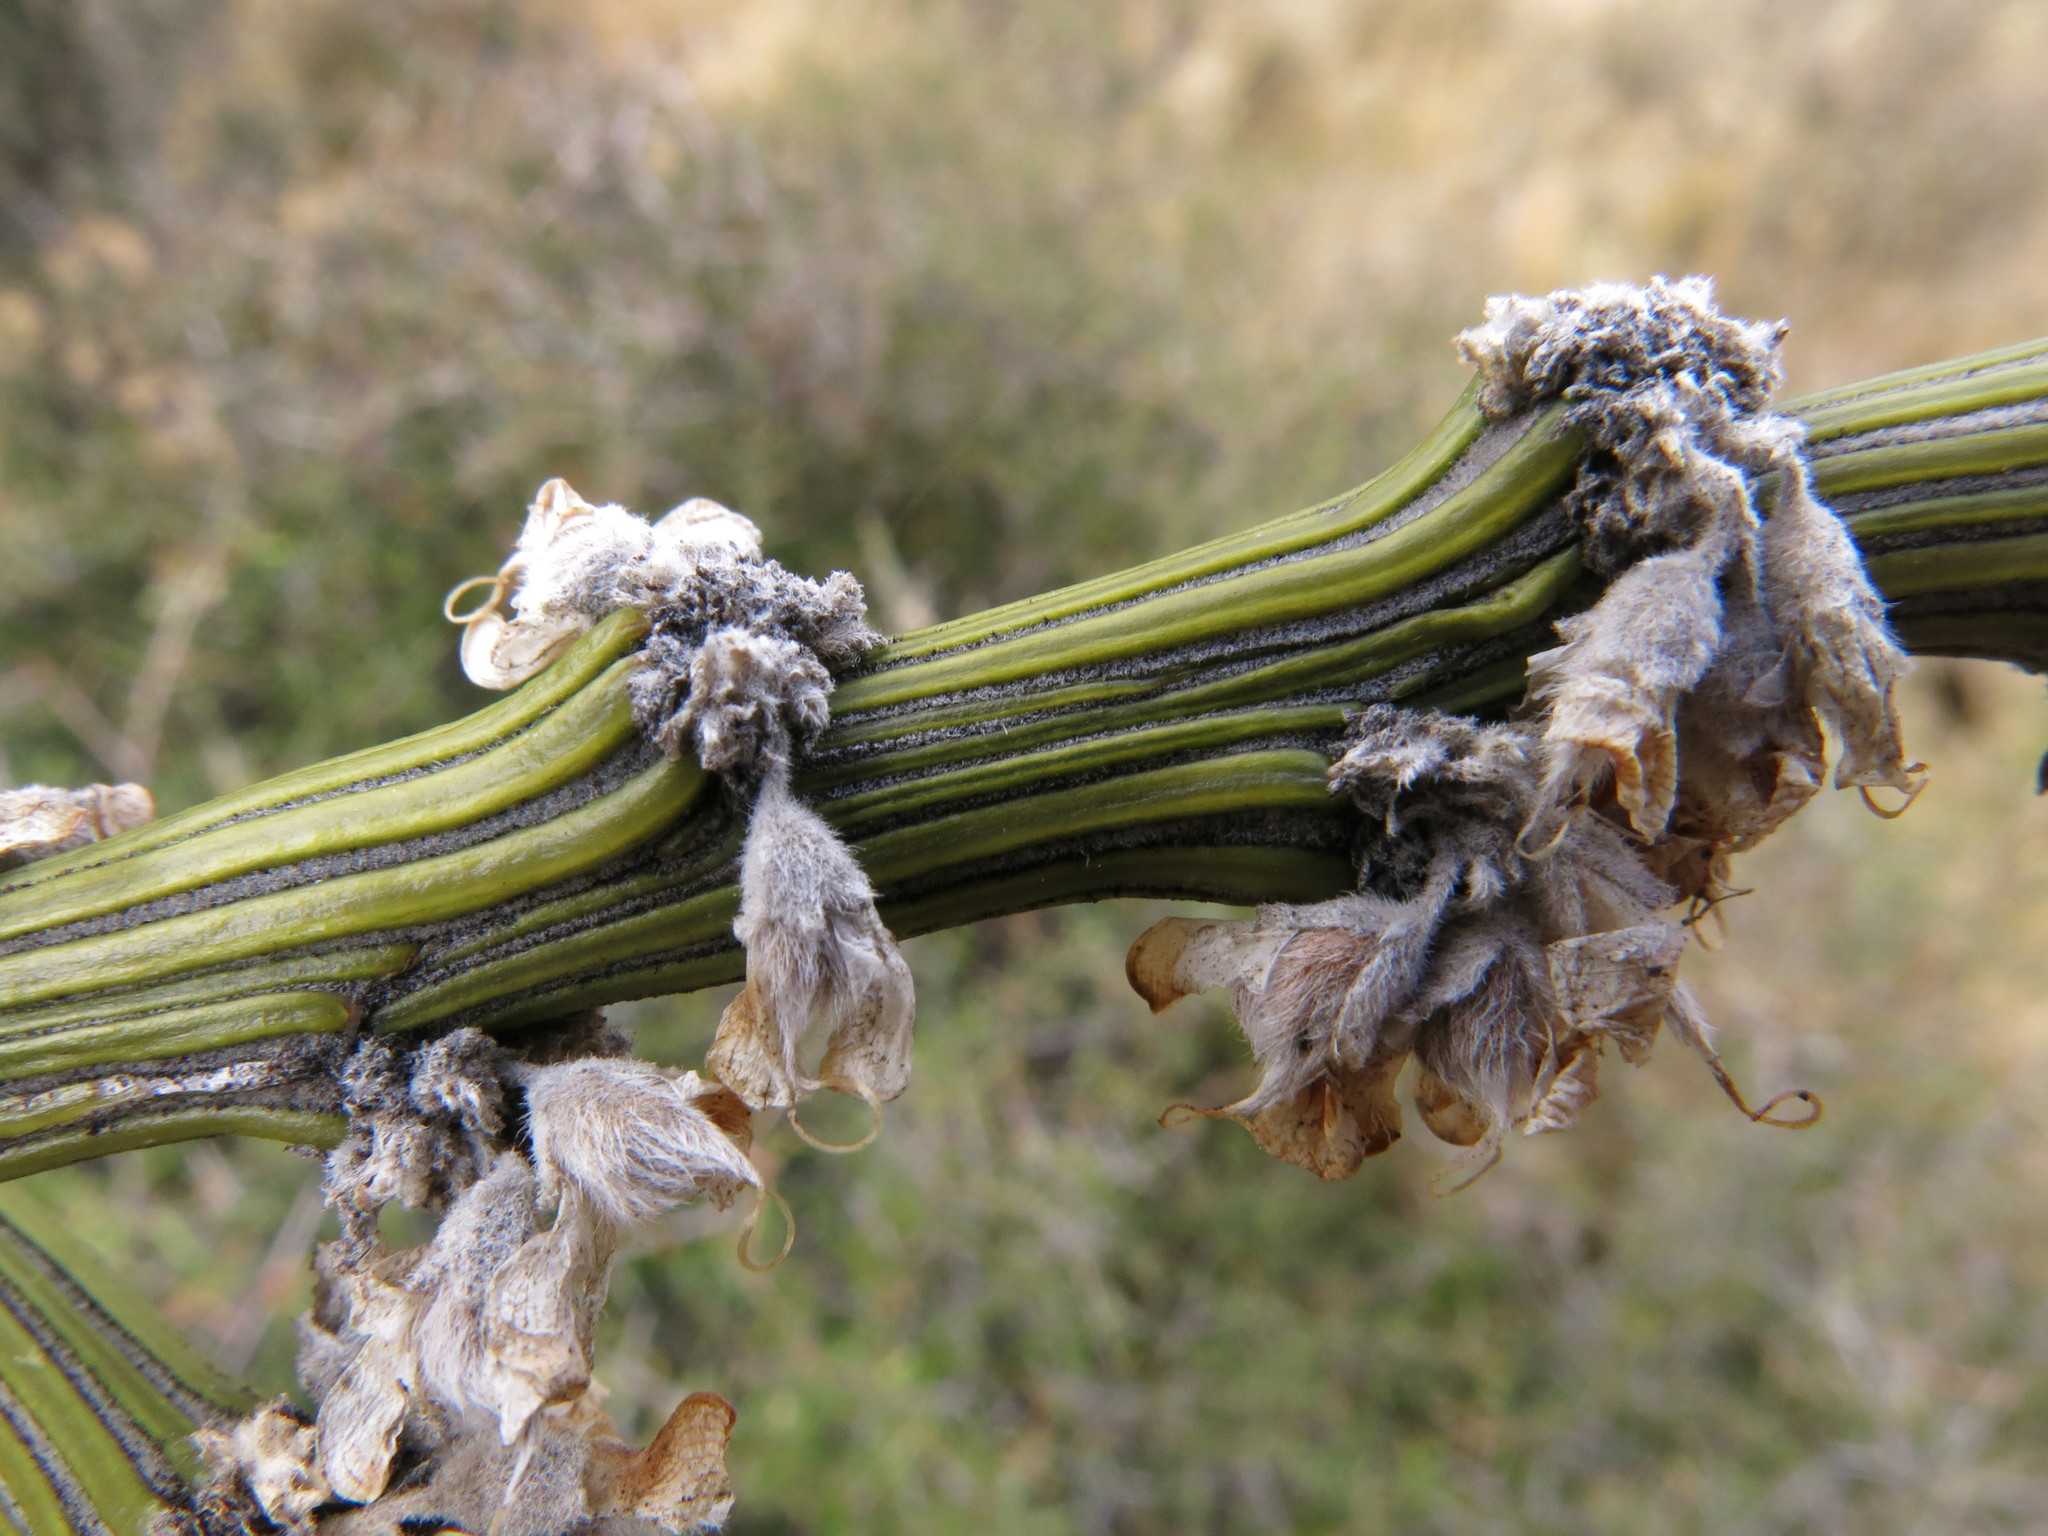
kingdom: Plantae
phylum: Tracheophyta
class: Magnoliopsida
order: Fabales
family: Fabaceae
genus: Carmichaelia
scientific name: Carmichaelia crassicaulis
